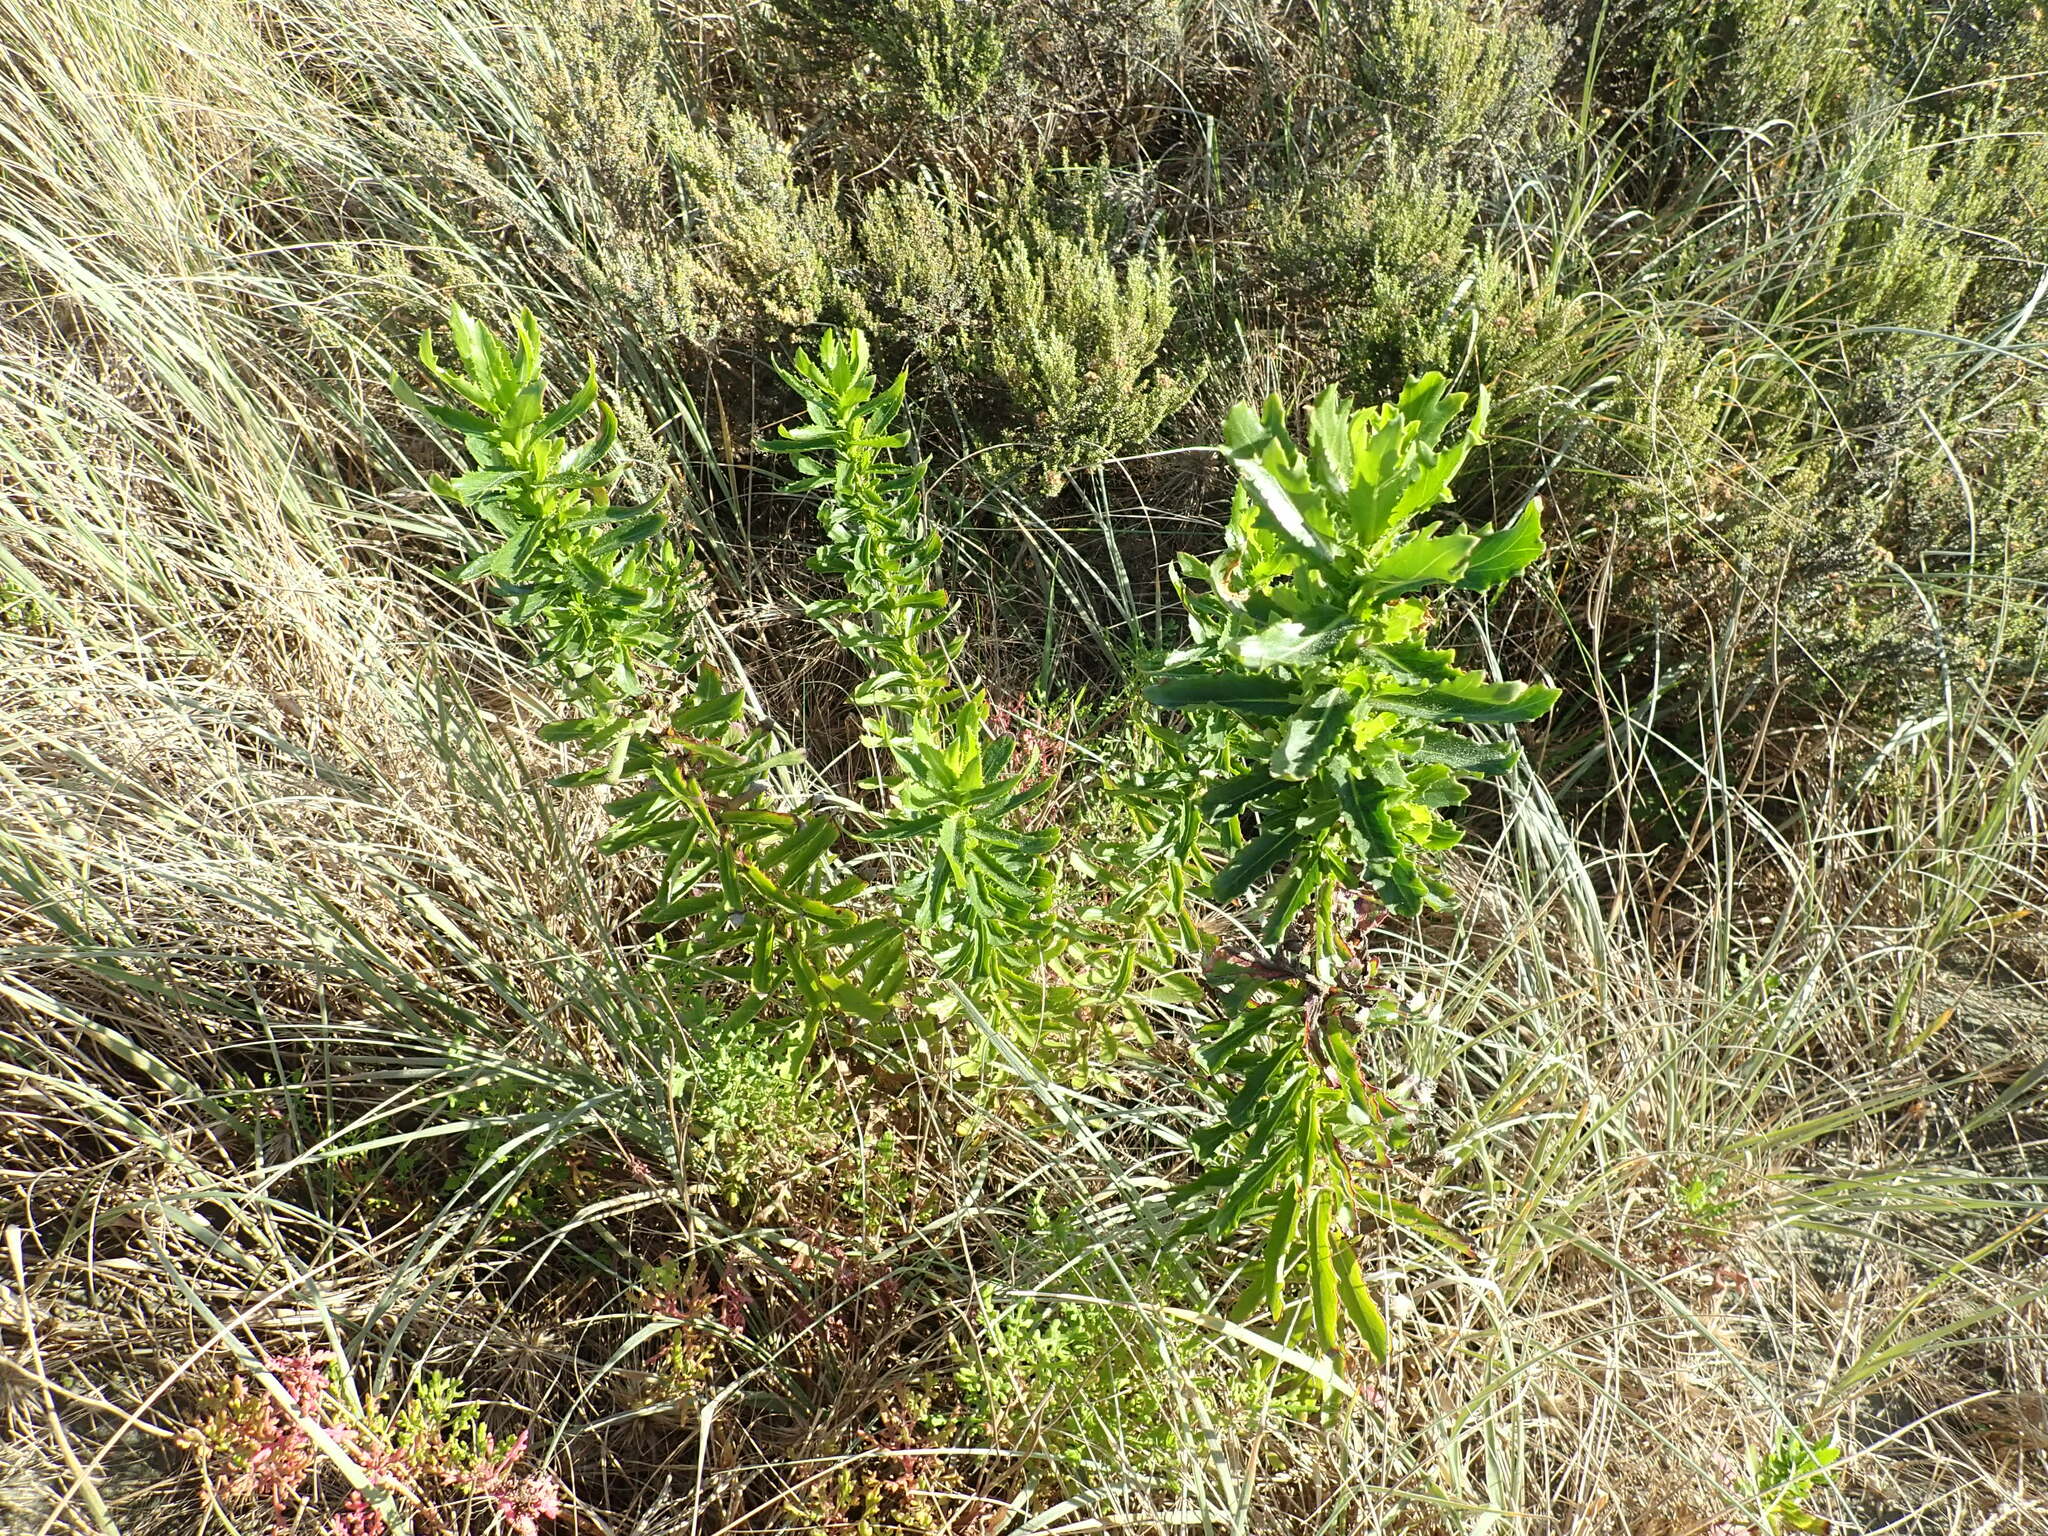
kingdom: Plantae
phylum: Tracheophyta
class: Magnoliopsida
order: Asterales
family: Asteraceae
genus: Senecio
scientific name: Senecio glastifolius
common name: Woad-leaved ragwort
